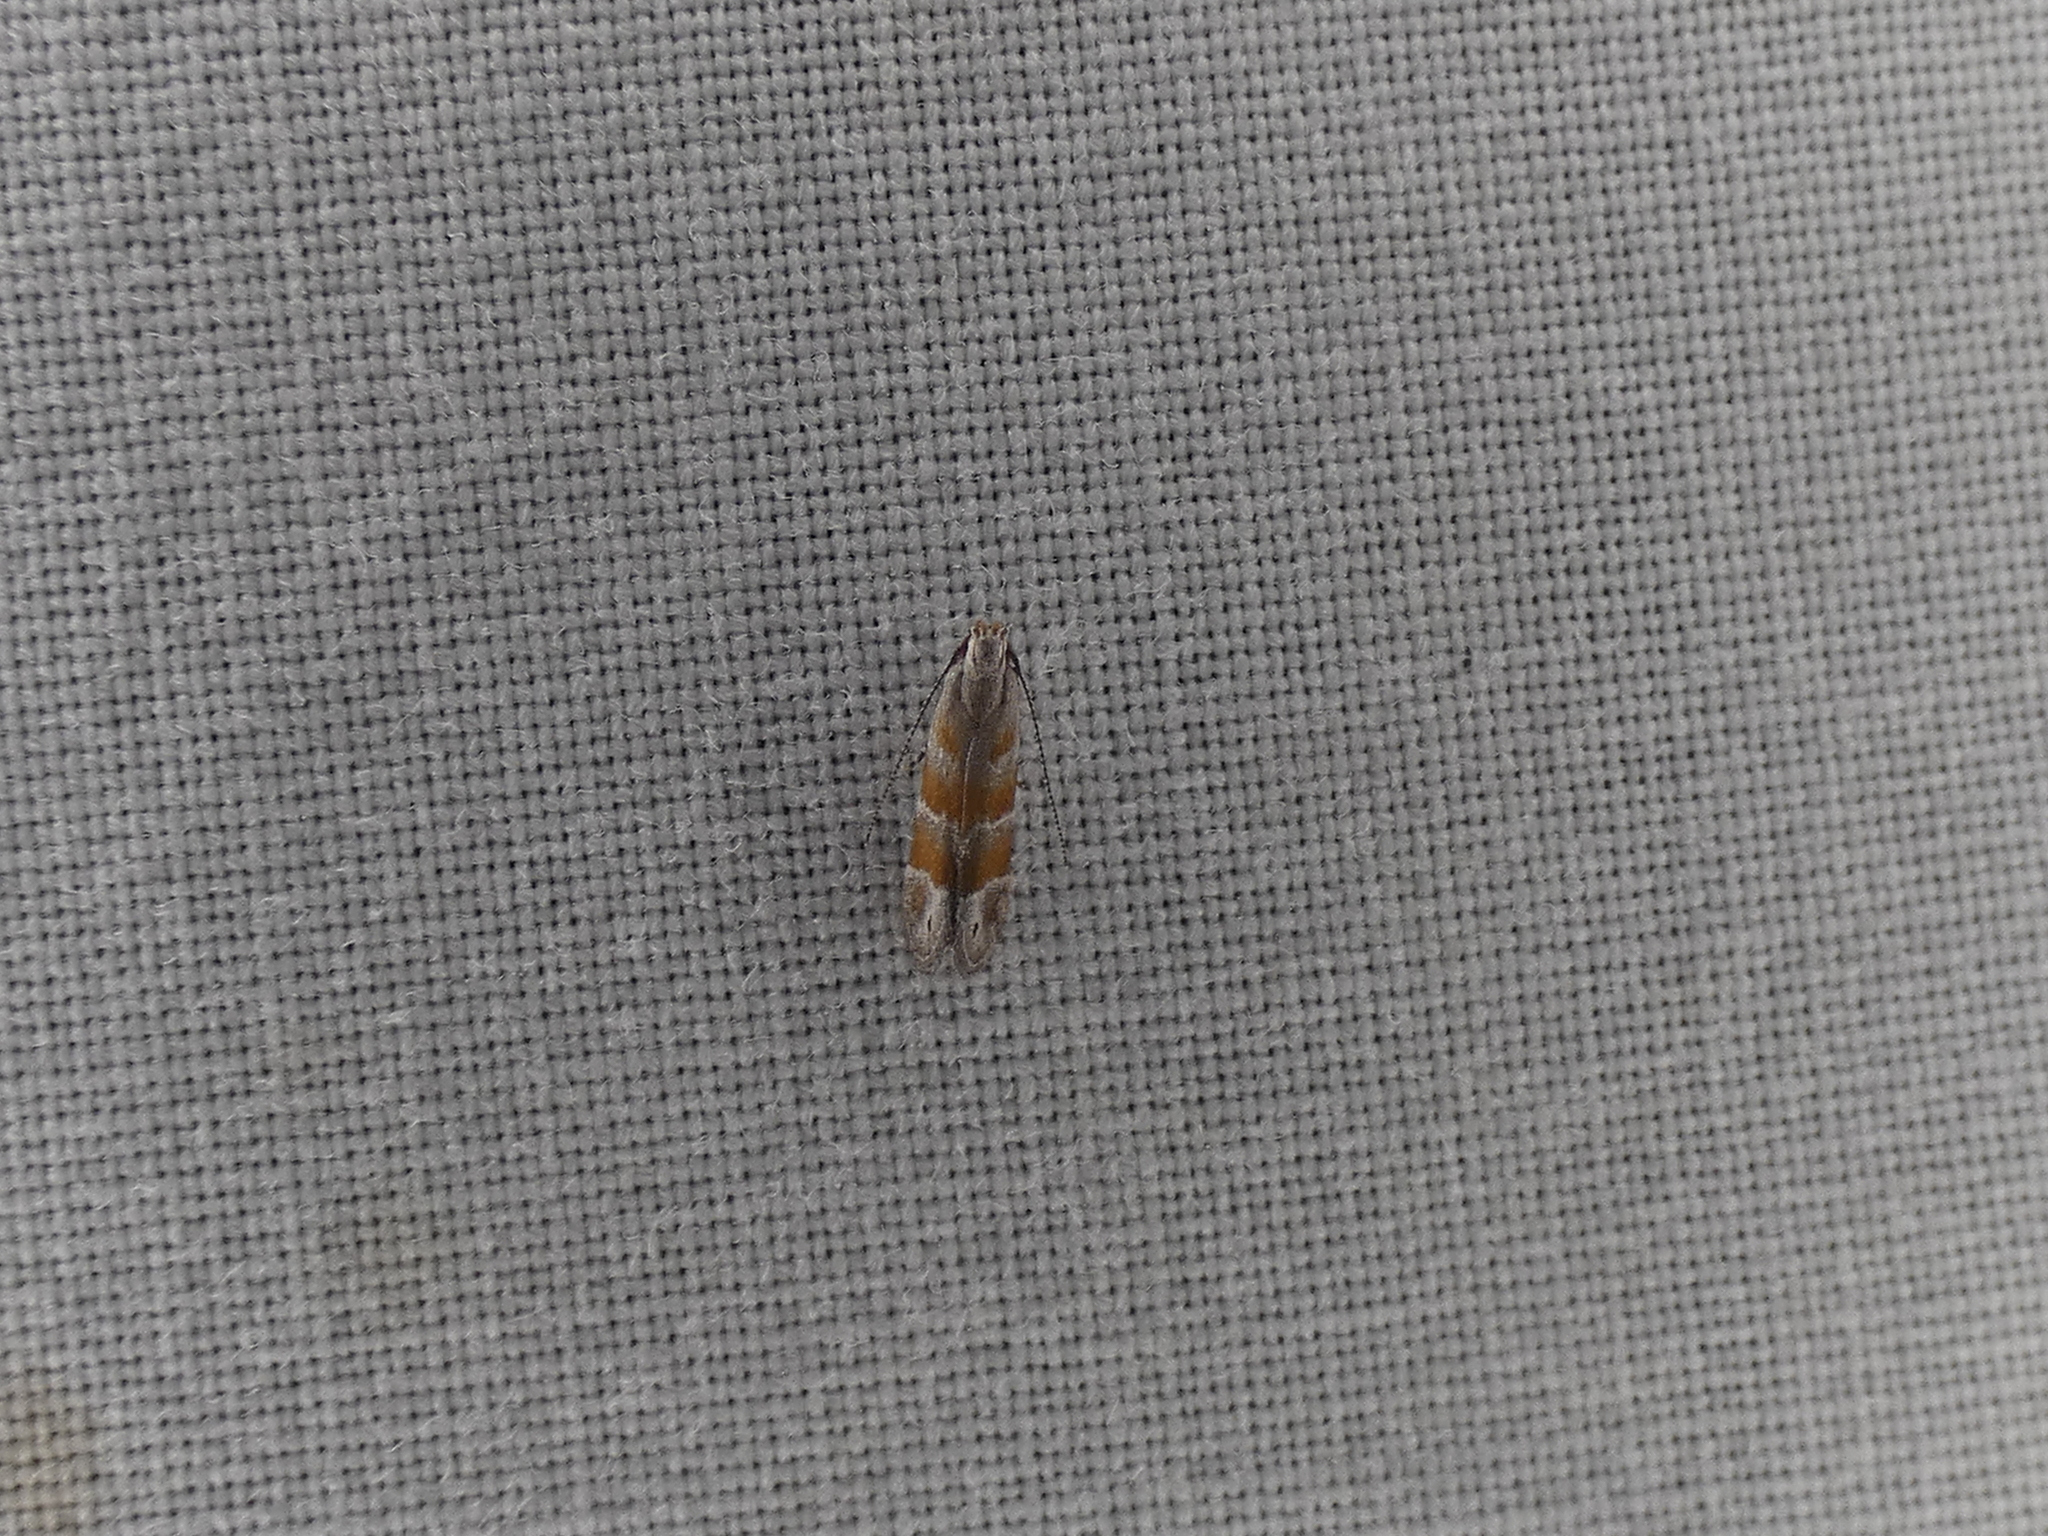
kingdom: Animalia
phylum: Arthropoda
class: Insecta
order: Lepidoptera
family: Gelechiidae
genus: Battaristis
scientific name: Battaristis vittella
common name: Orange stripe-backed moth
